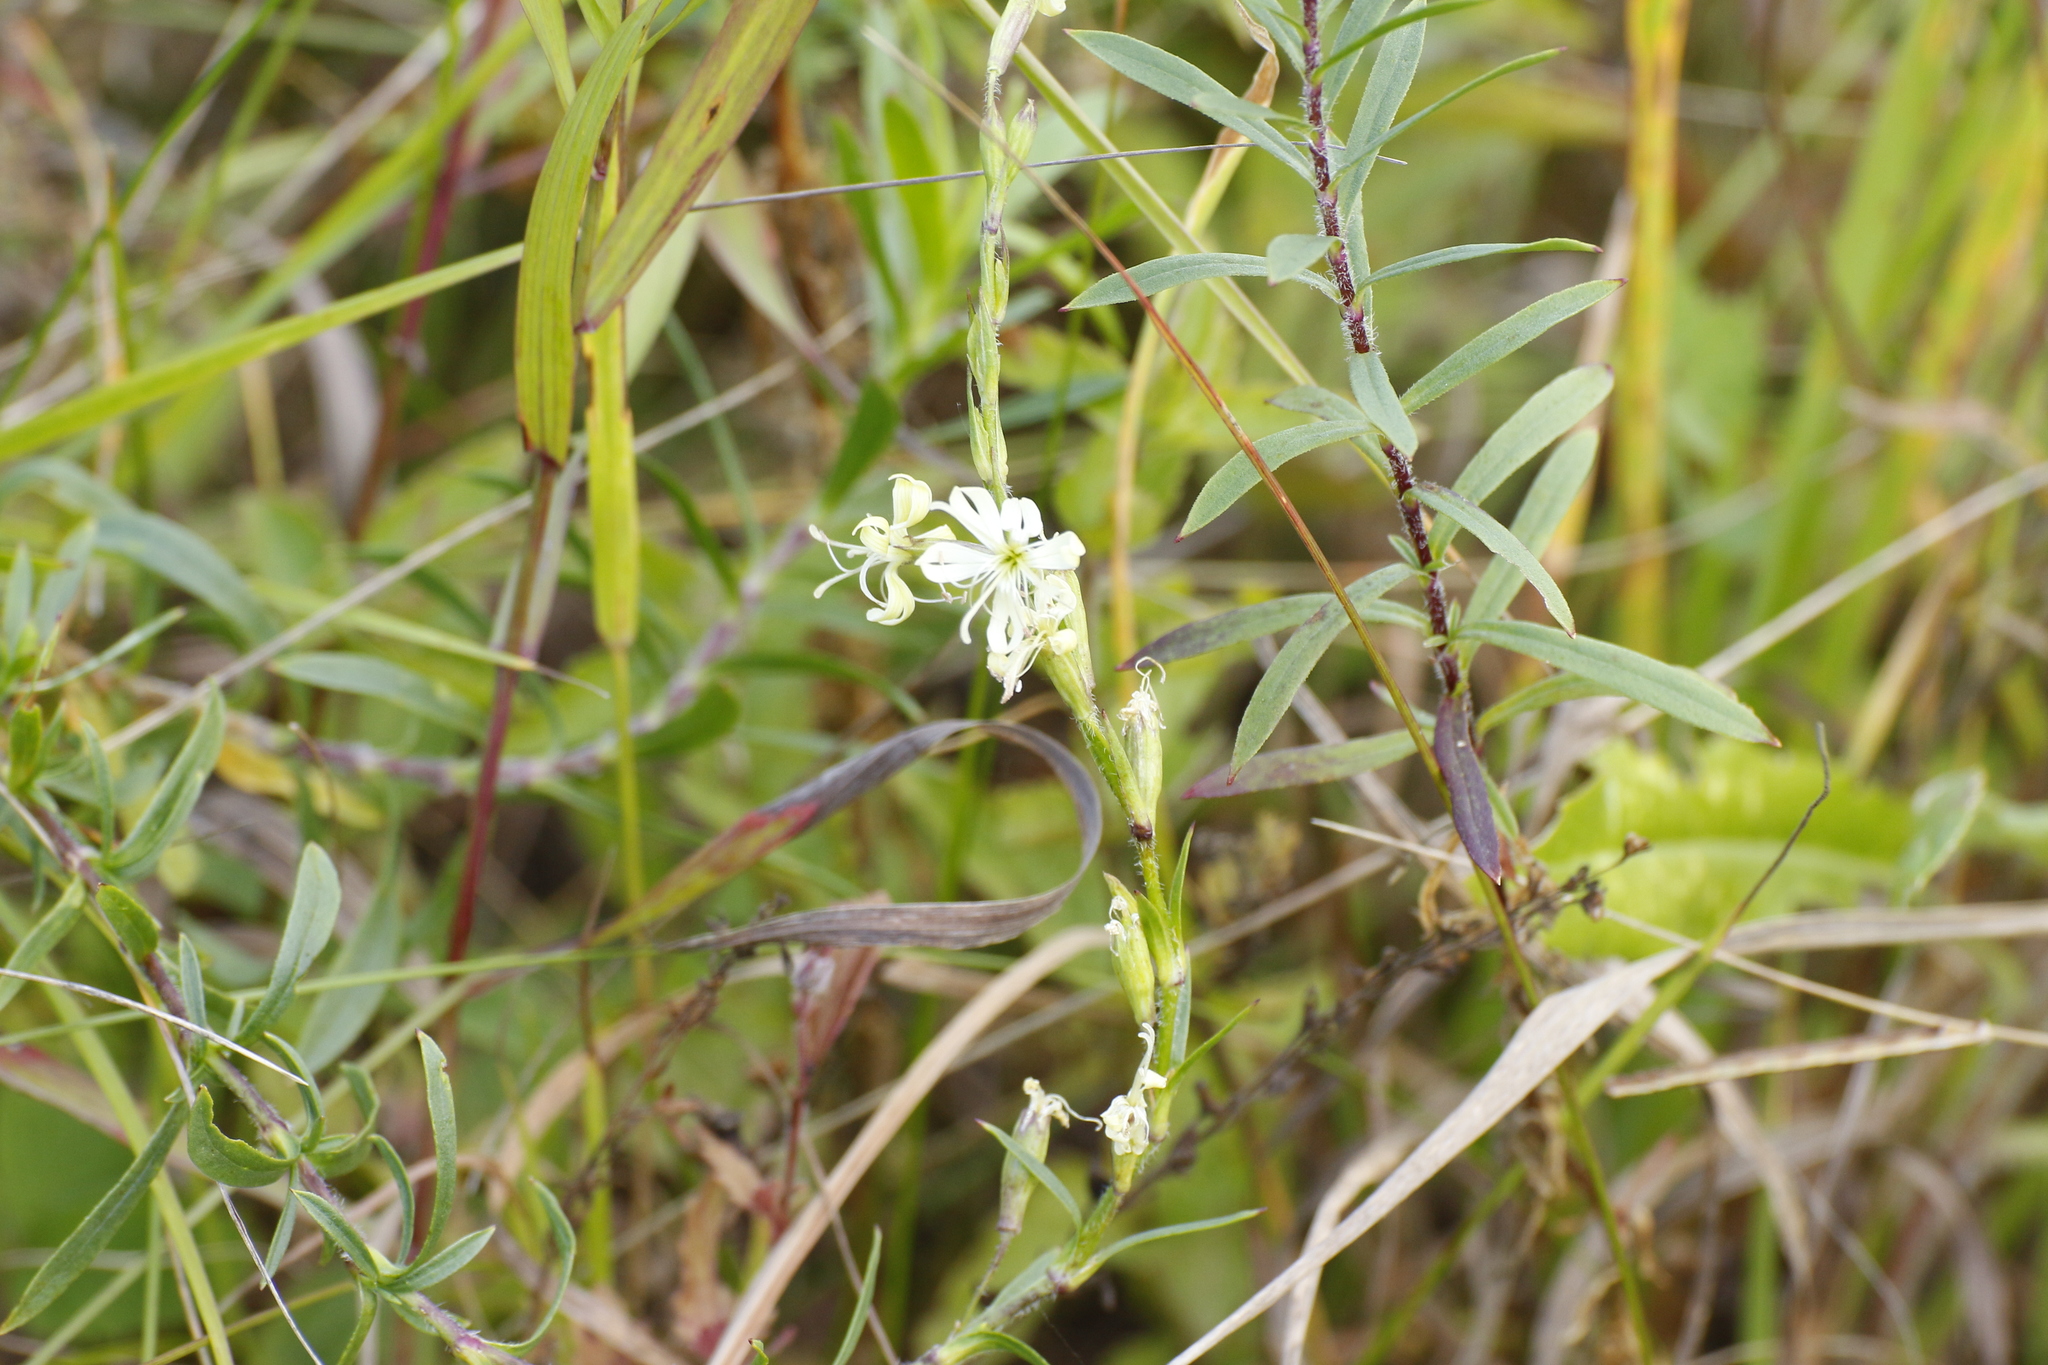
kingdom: Plantae
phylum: Tracheophyta
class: Magnoliopsida
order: Caryophyllales
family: Caryophyllaceae
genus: Silene
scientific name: Silene tatarica
